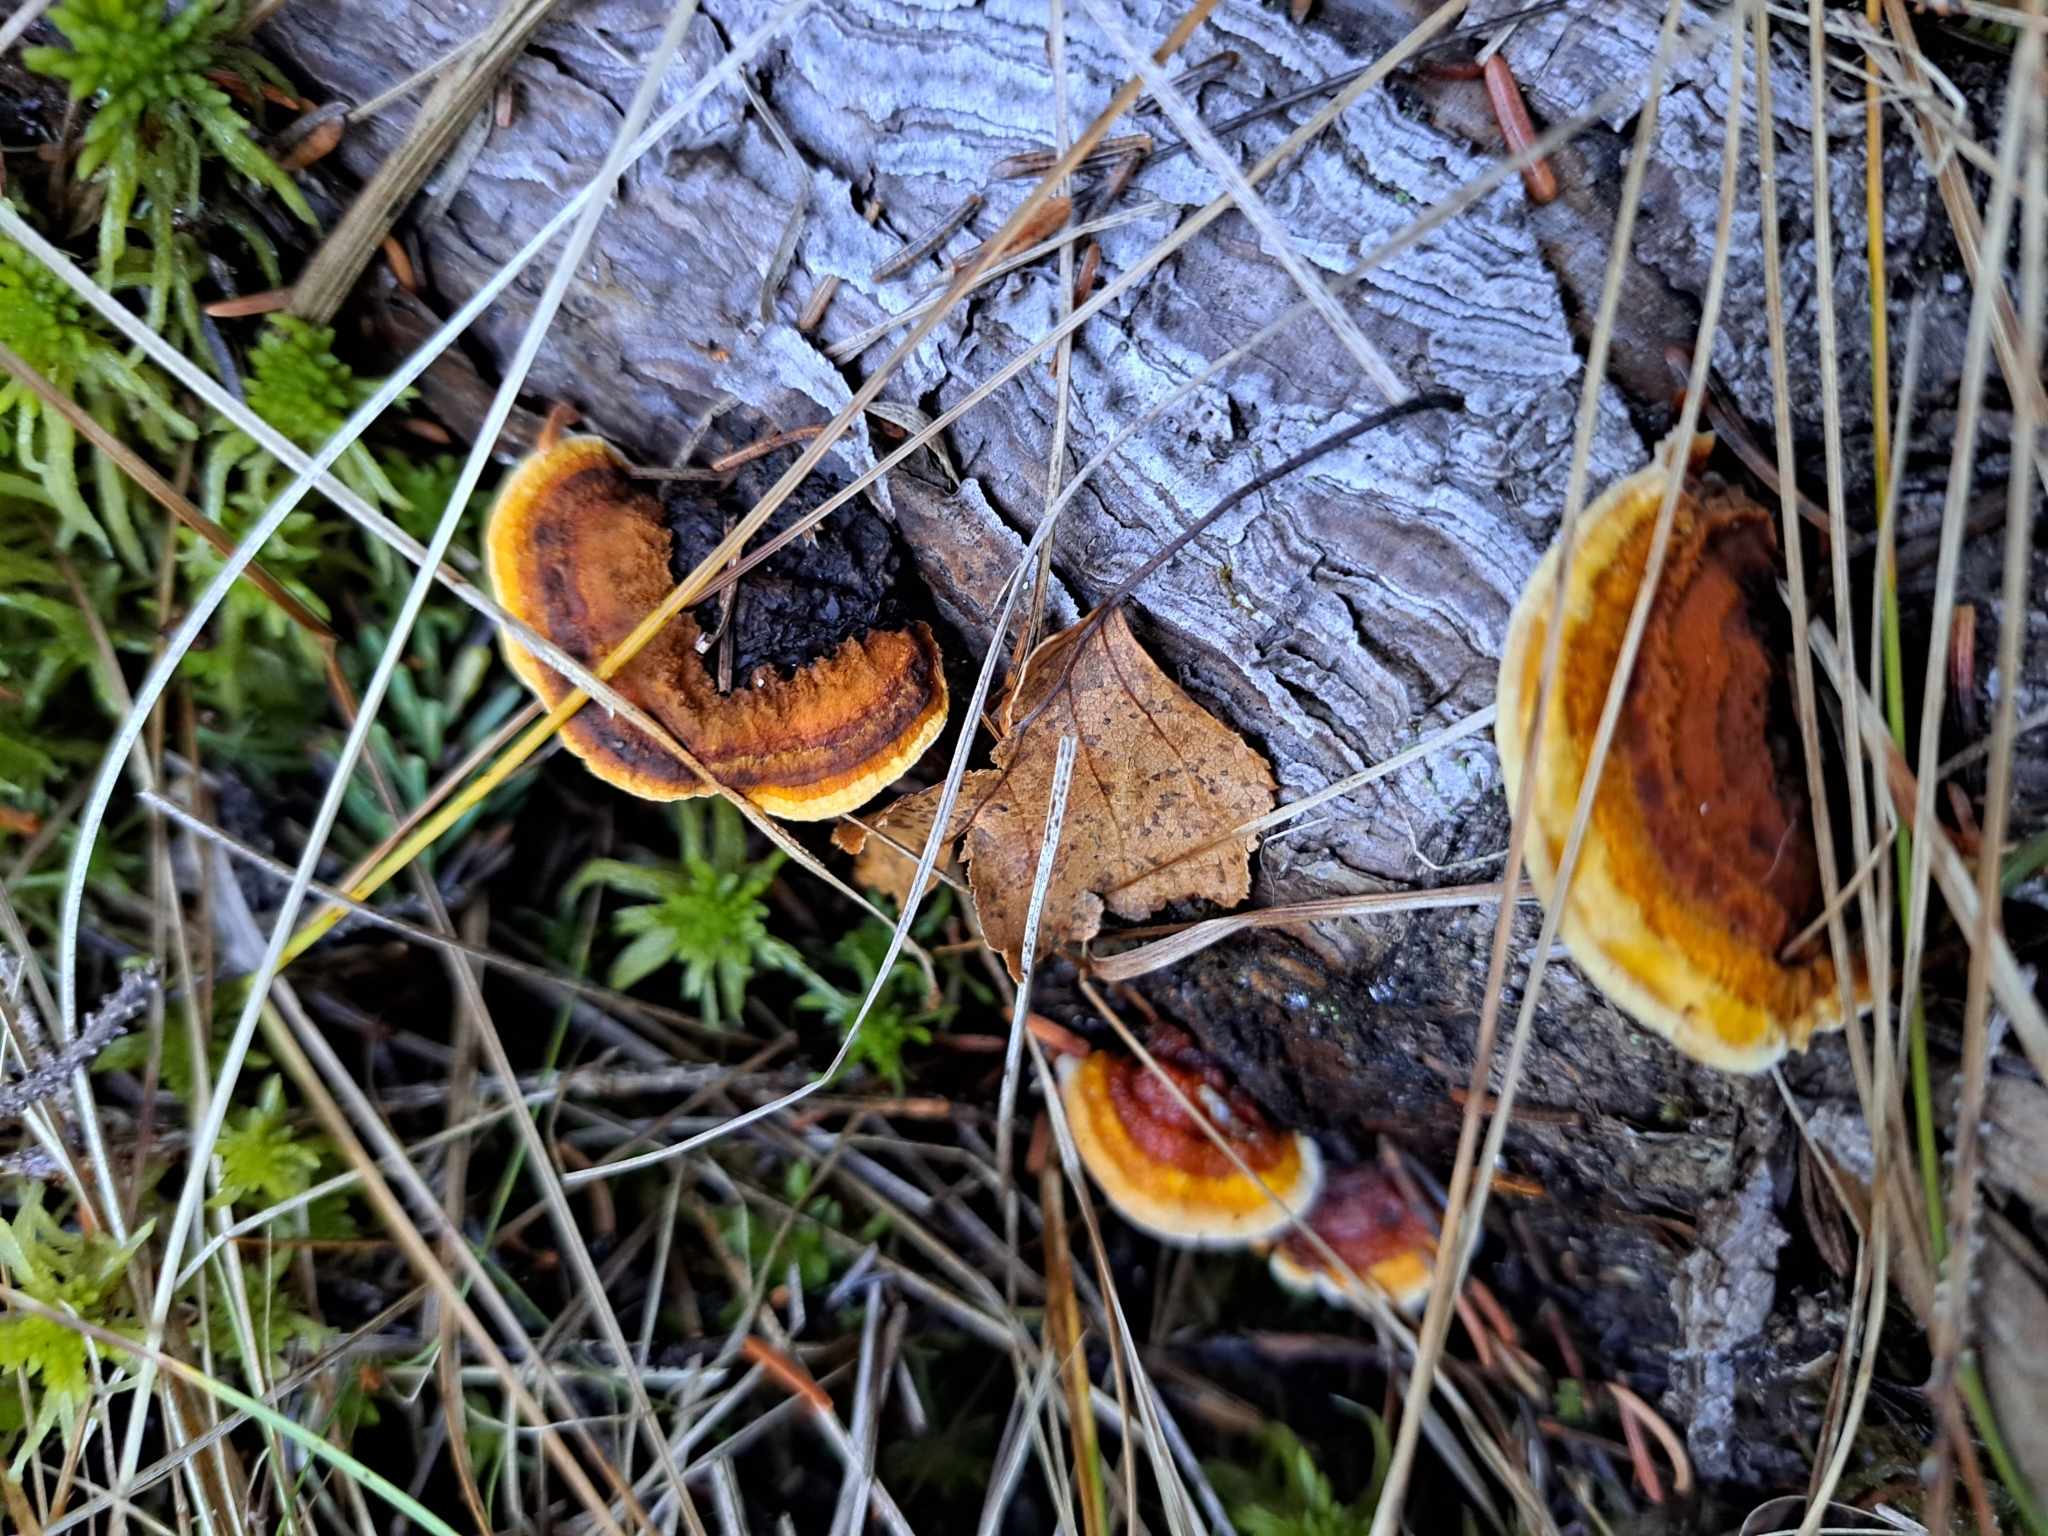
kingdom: Fungi
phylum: Basidiomycota
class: Agaricomycetes
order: Gloeophyllales
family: Gloeophyllaceae
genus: Gloeophyllum
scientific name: Gloeophyllum sepiarium
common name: Conifer mazegill
